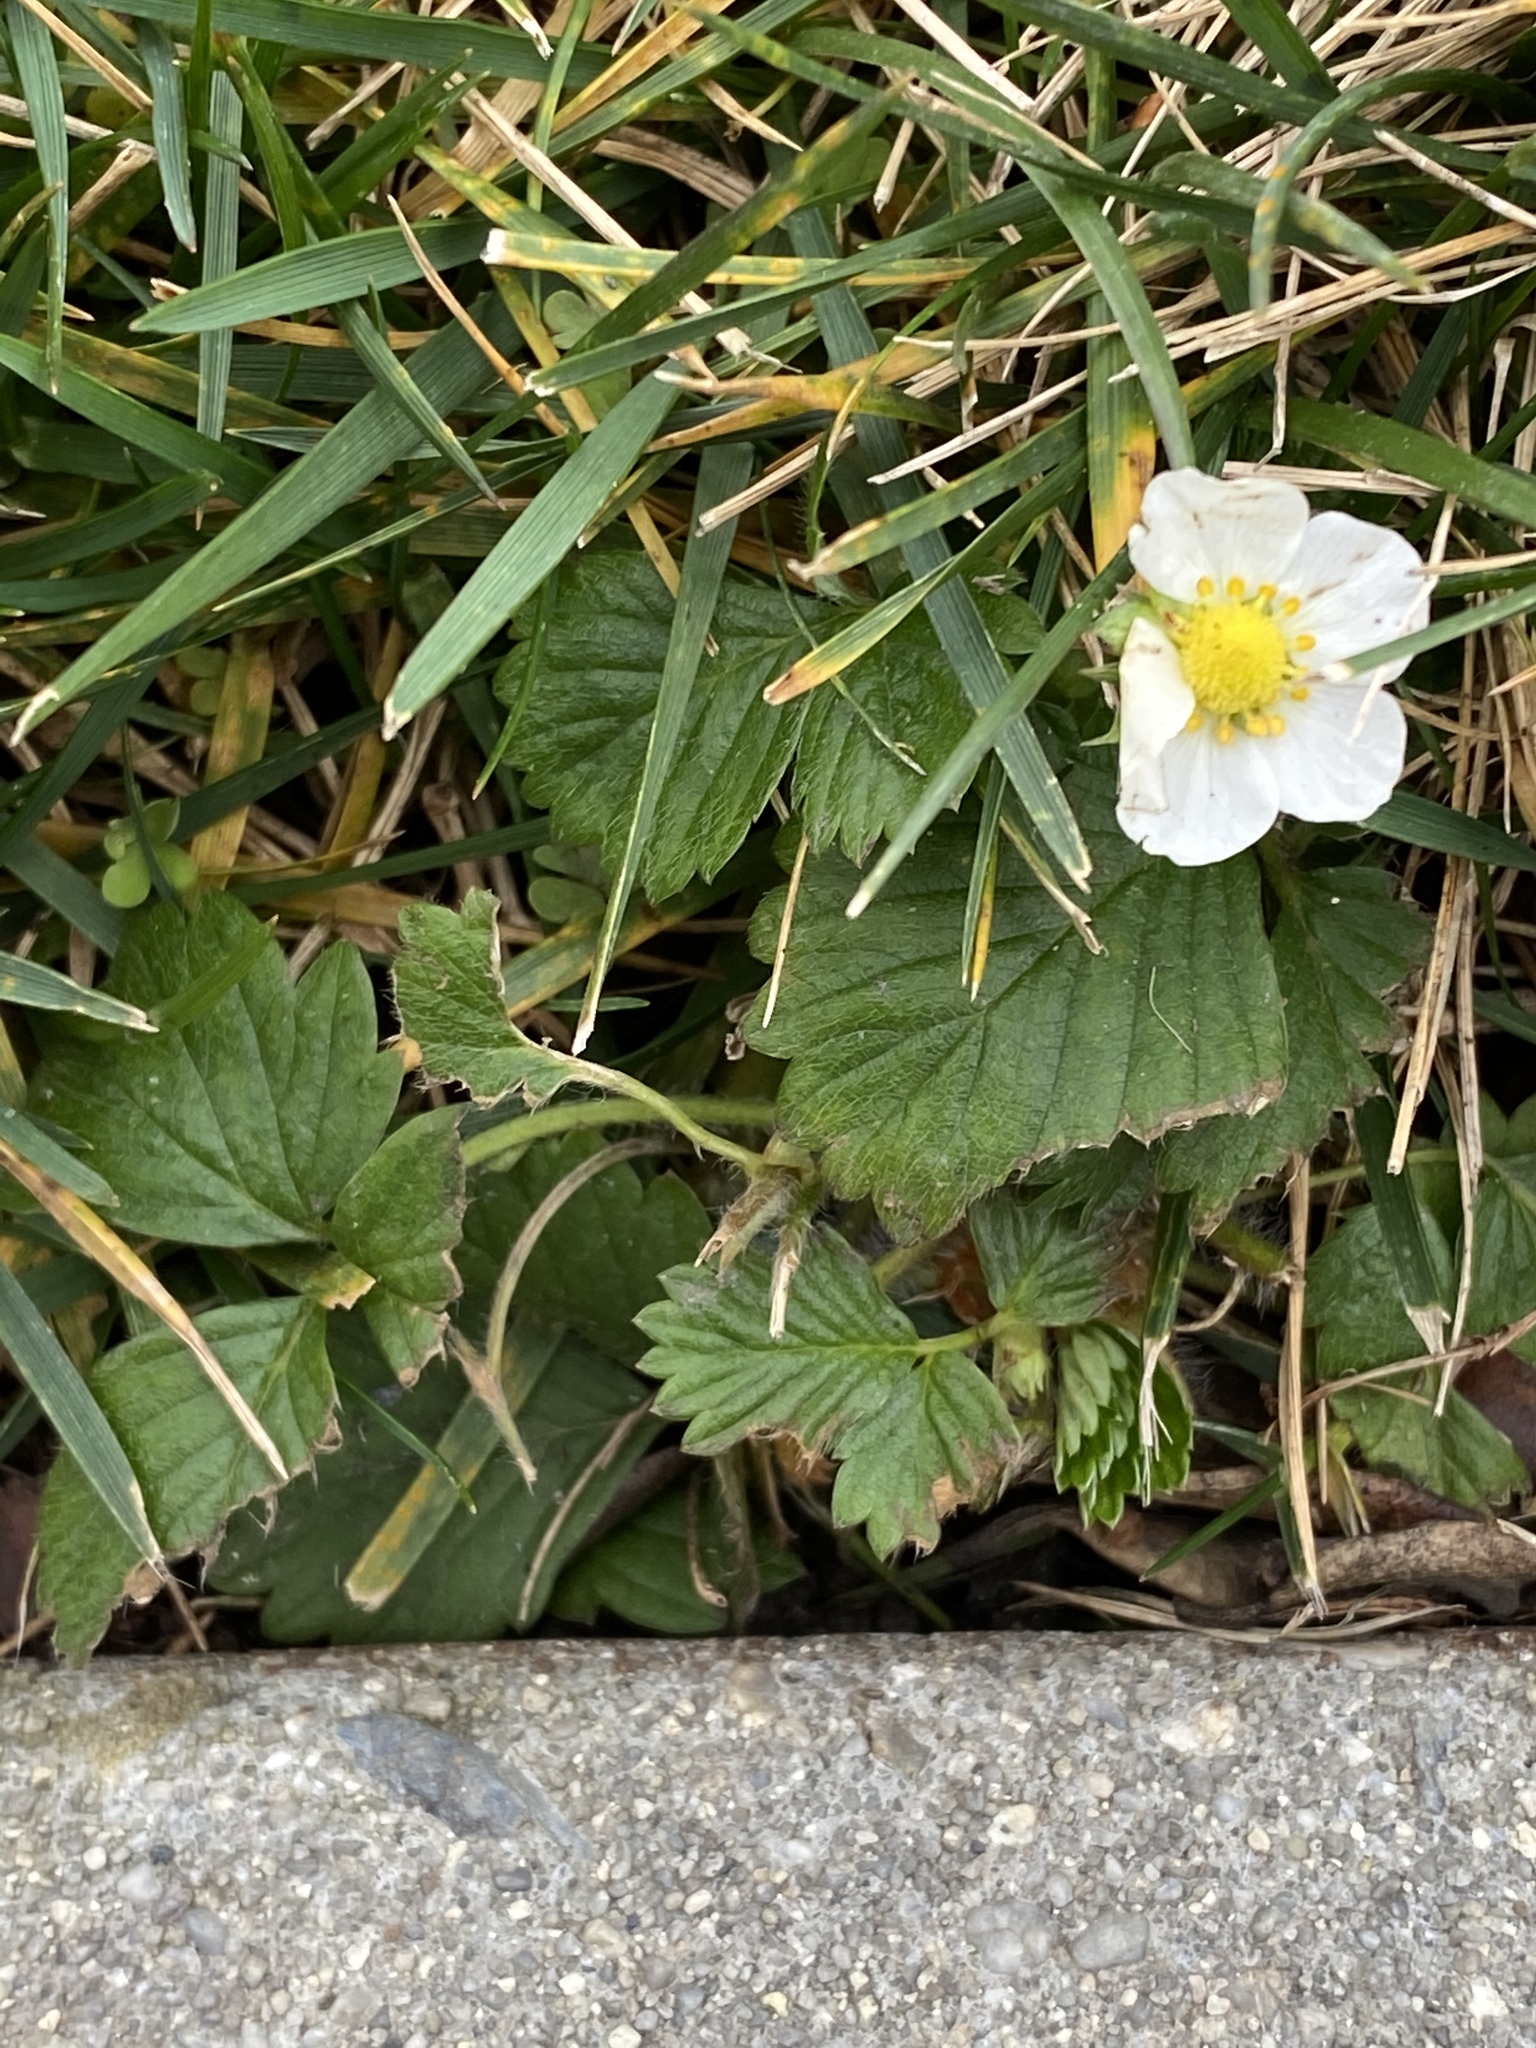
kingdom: Plantae
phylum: Tracheophyta
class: Magnoliopsida
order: Rosales
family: Rosaceae
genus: Fragaria
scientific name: Fragaria vesca
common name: Wild strawberry
